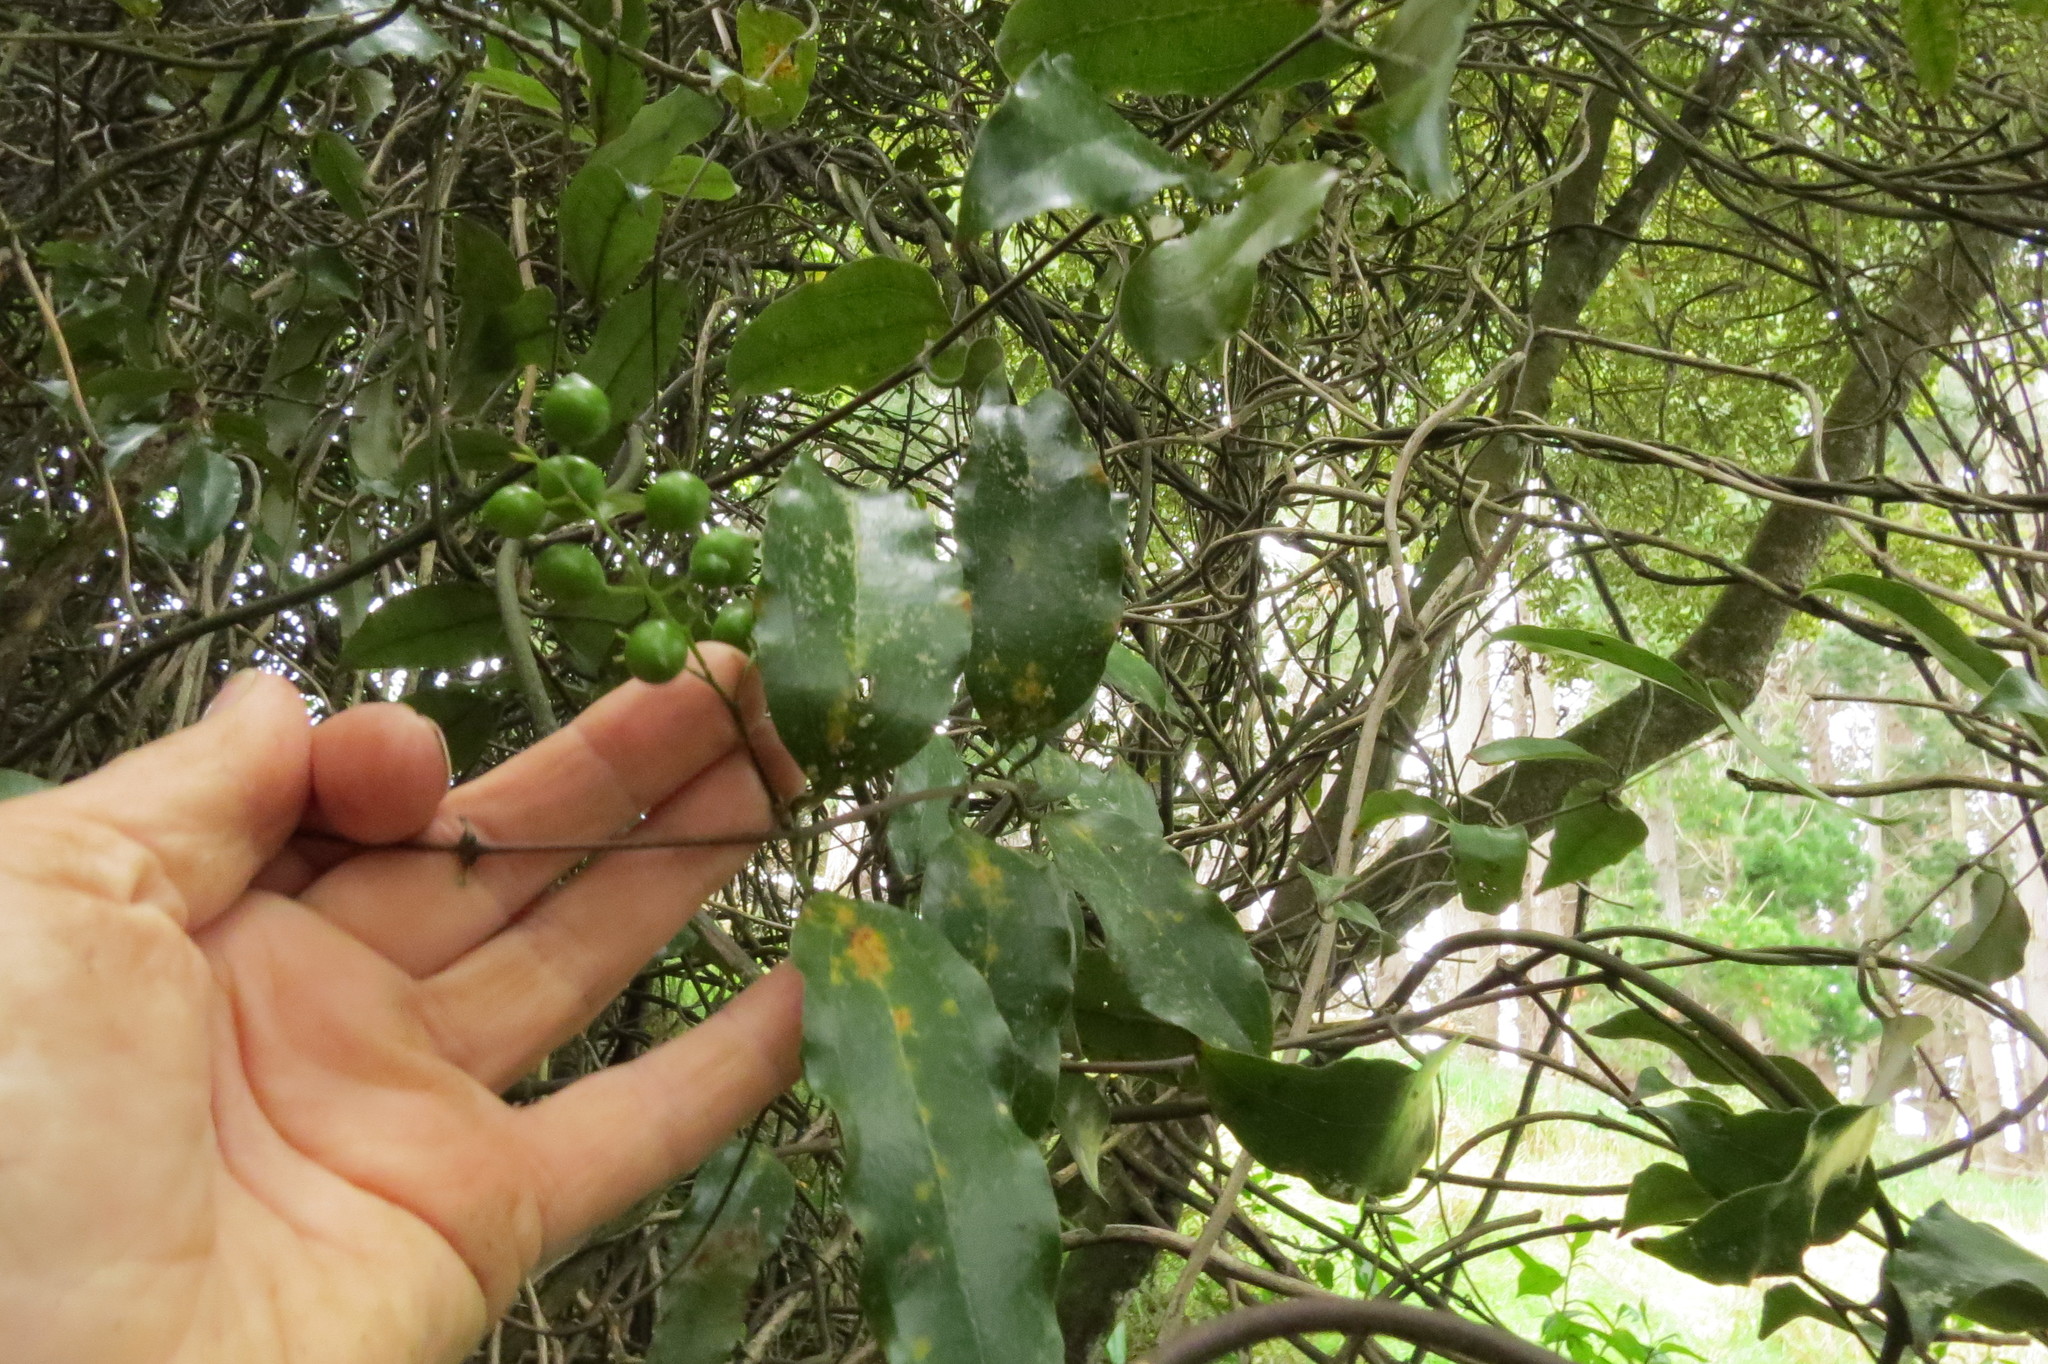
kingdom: Plantae
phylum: Tracheophyta
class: Liliopsida
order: Liliales
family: Ripogonaceae
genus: Ripogonum
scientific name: Ripogonum scandens
